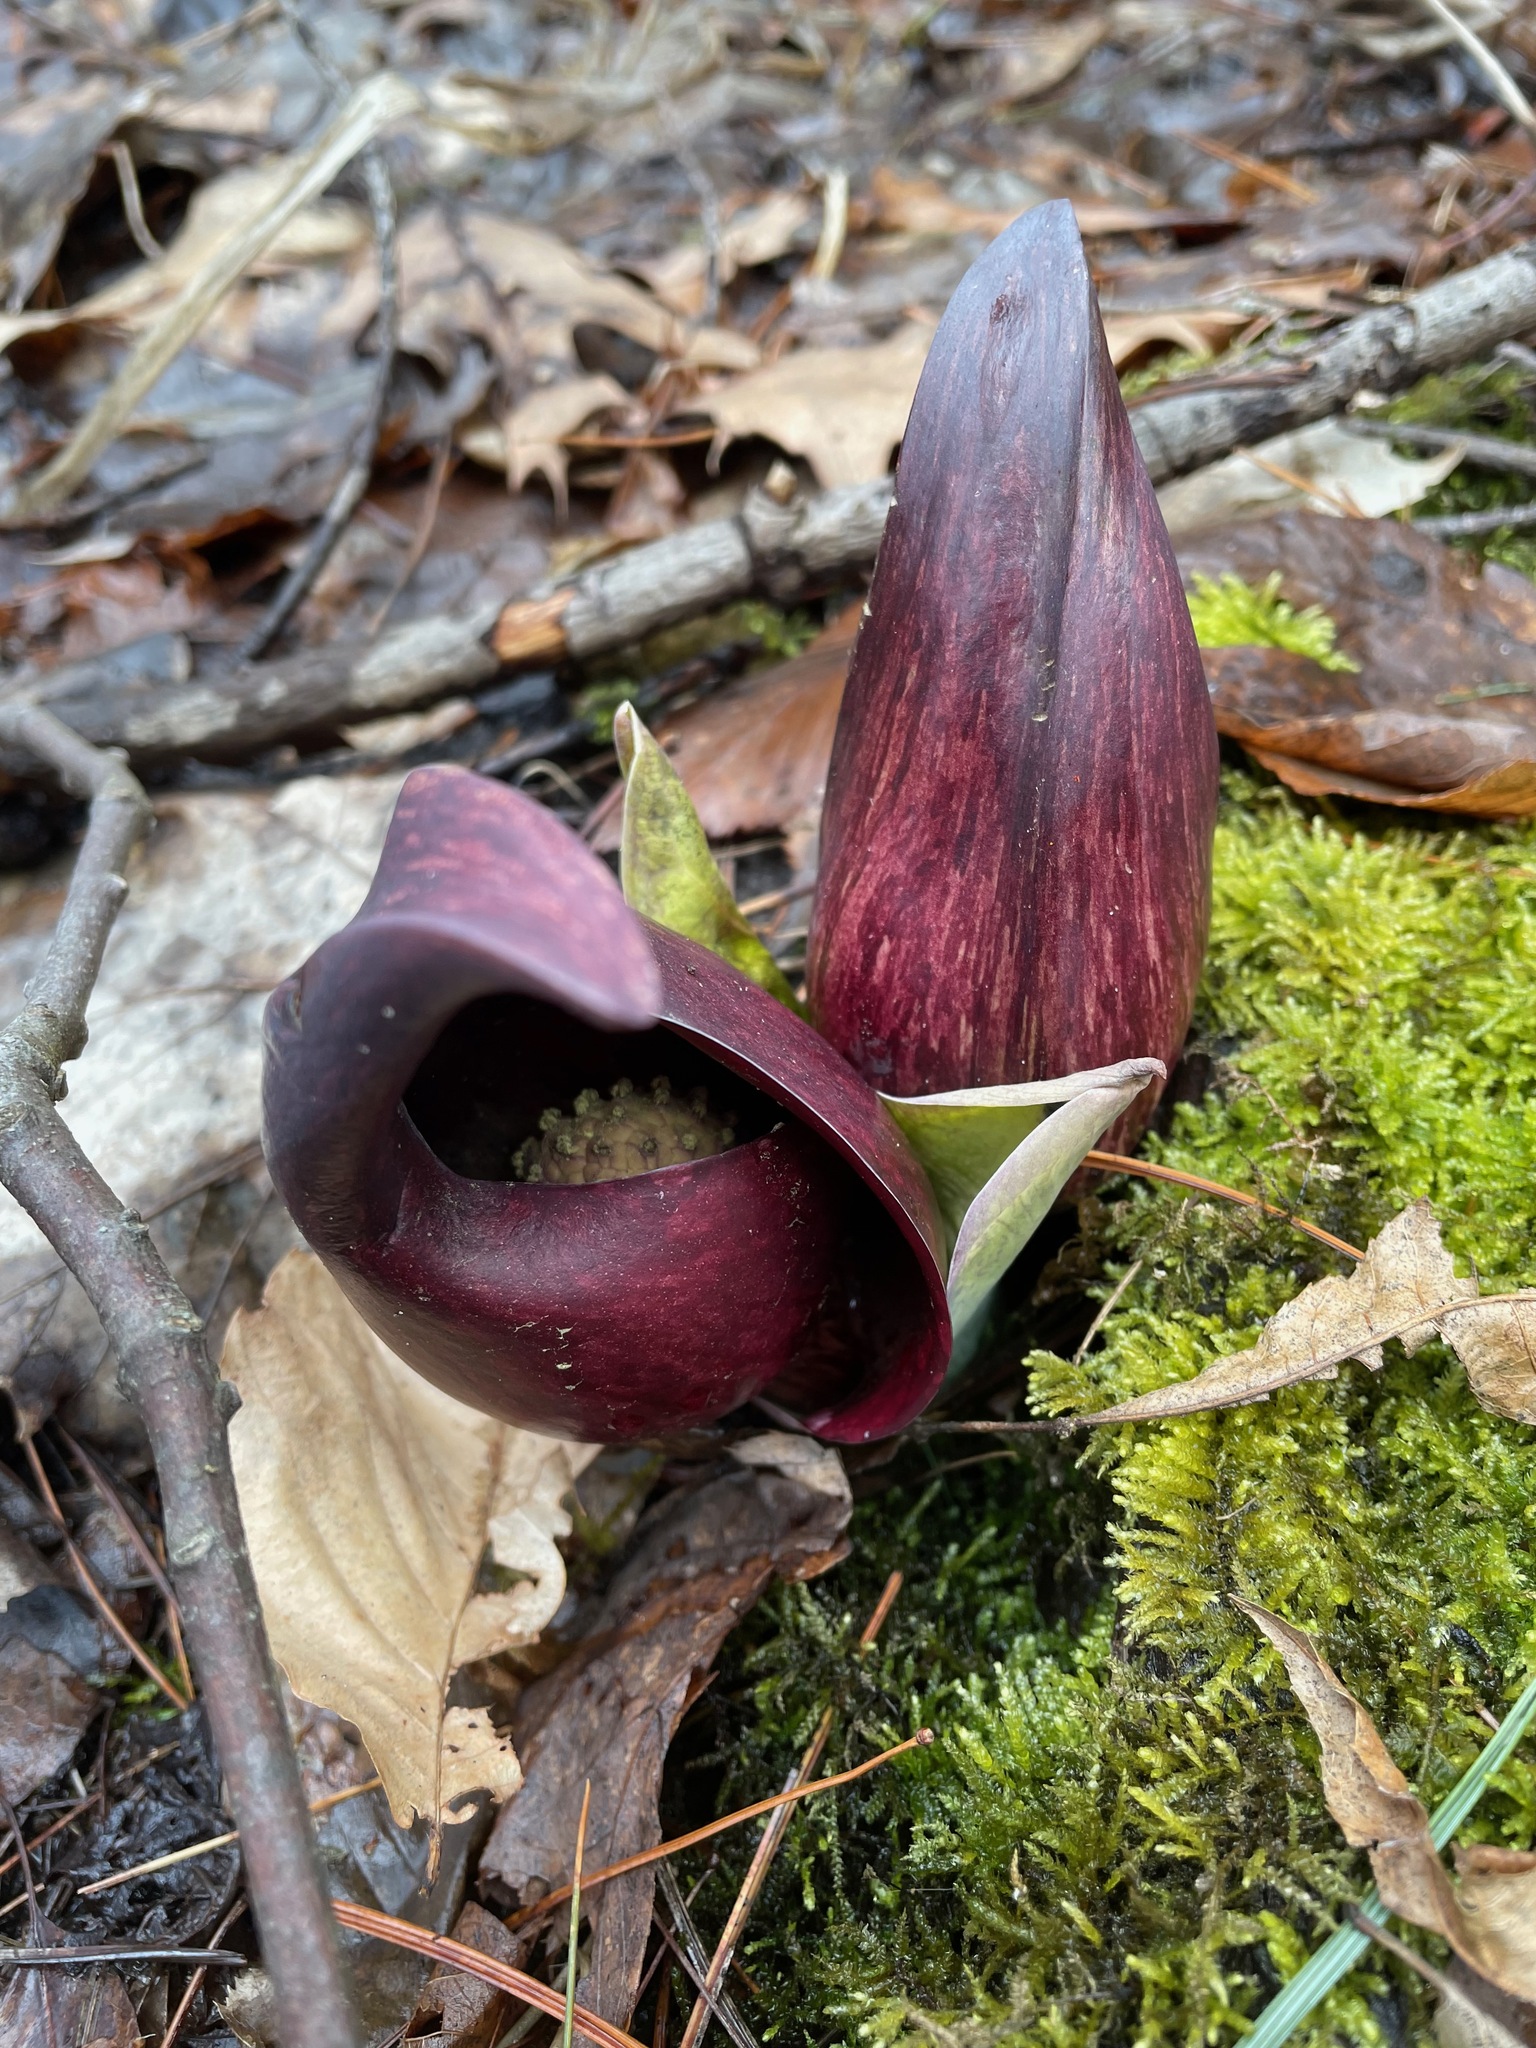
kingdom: Plantae
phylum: Tracheophyta
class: Liliopsida
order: Alismatales
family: Araceae
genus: Symplocarpus
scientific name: Symplocarpus foetidus
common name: Eastern skunk cabbage
